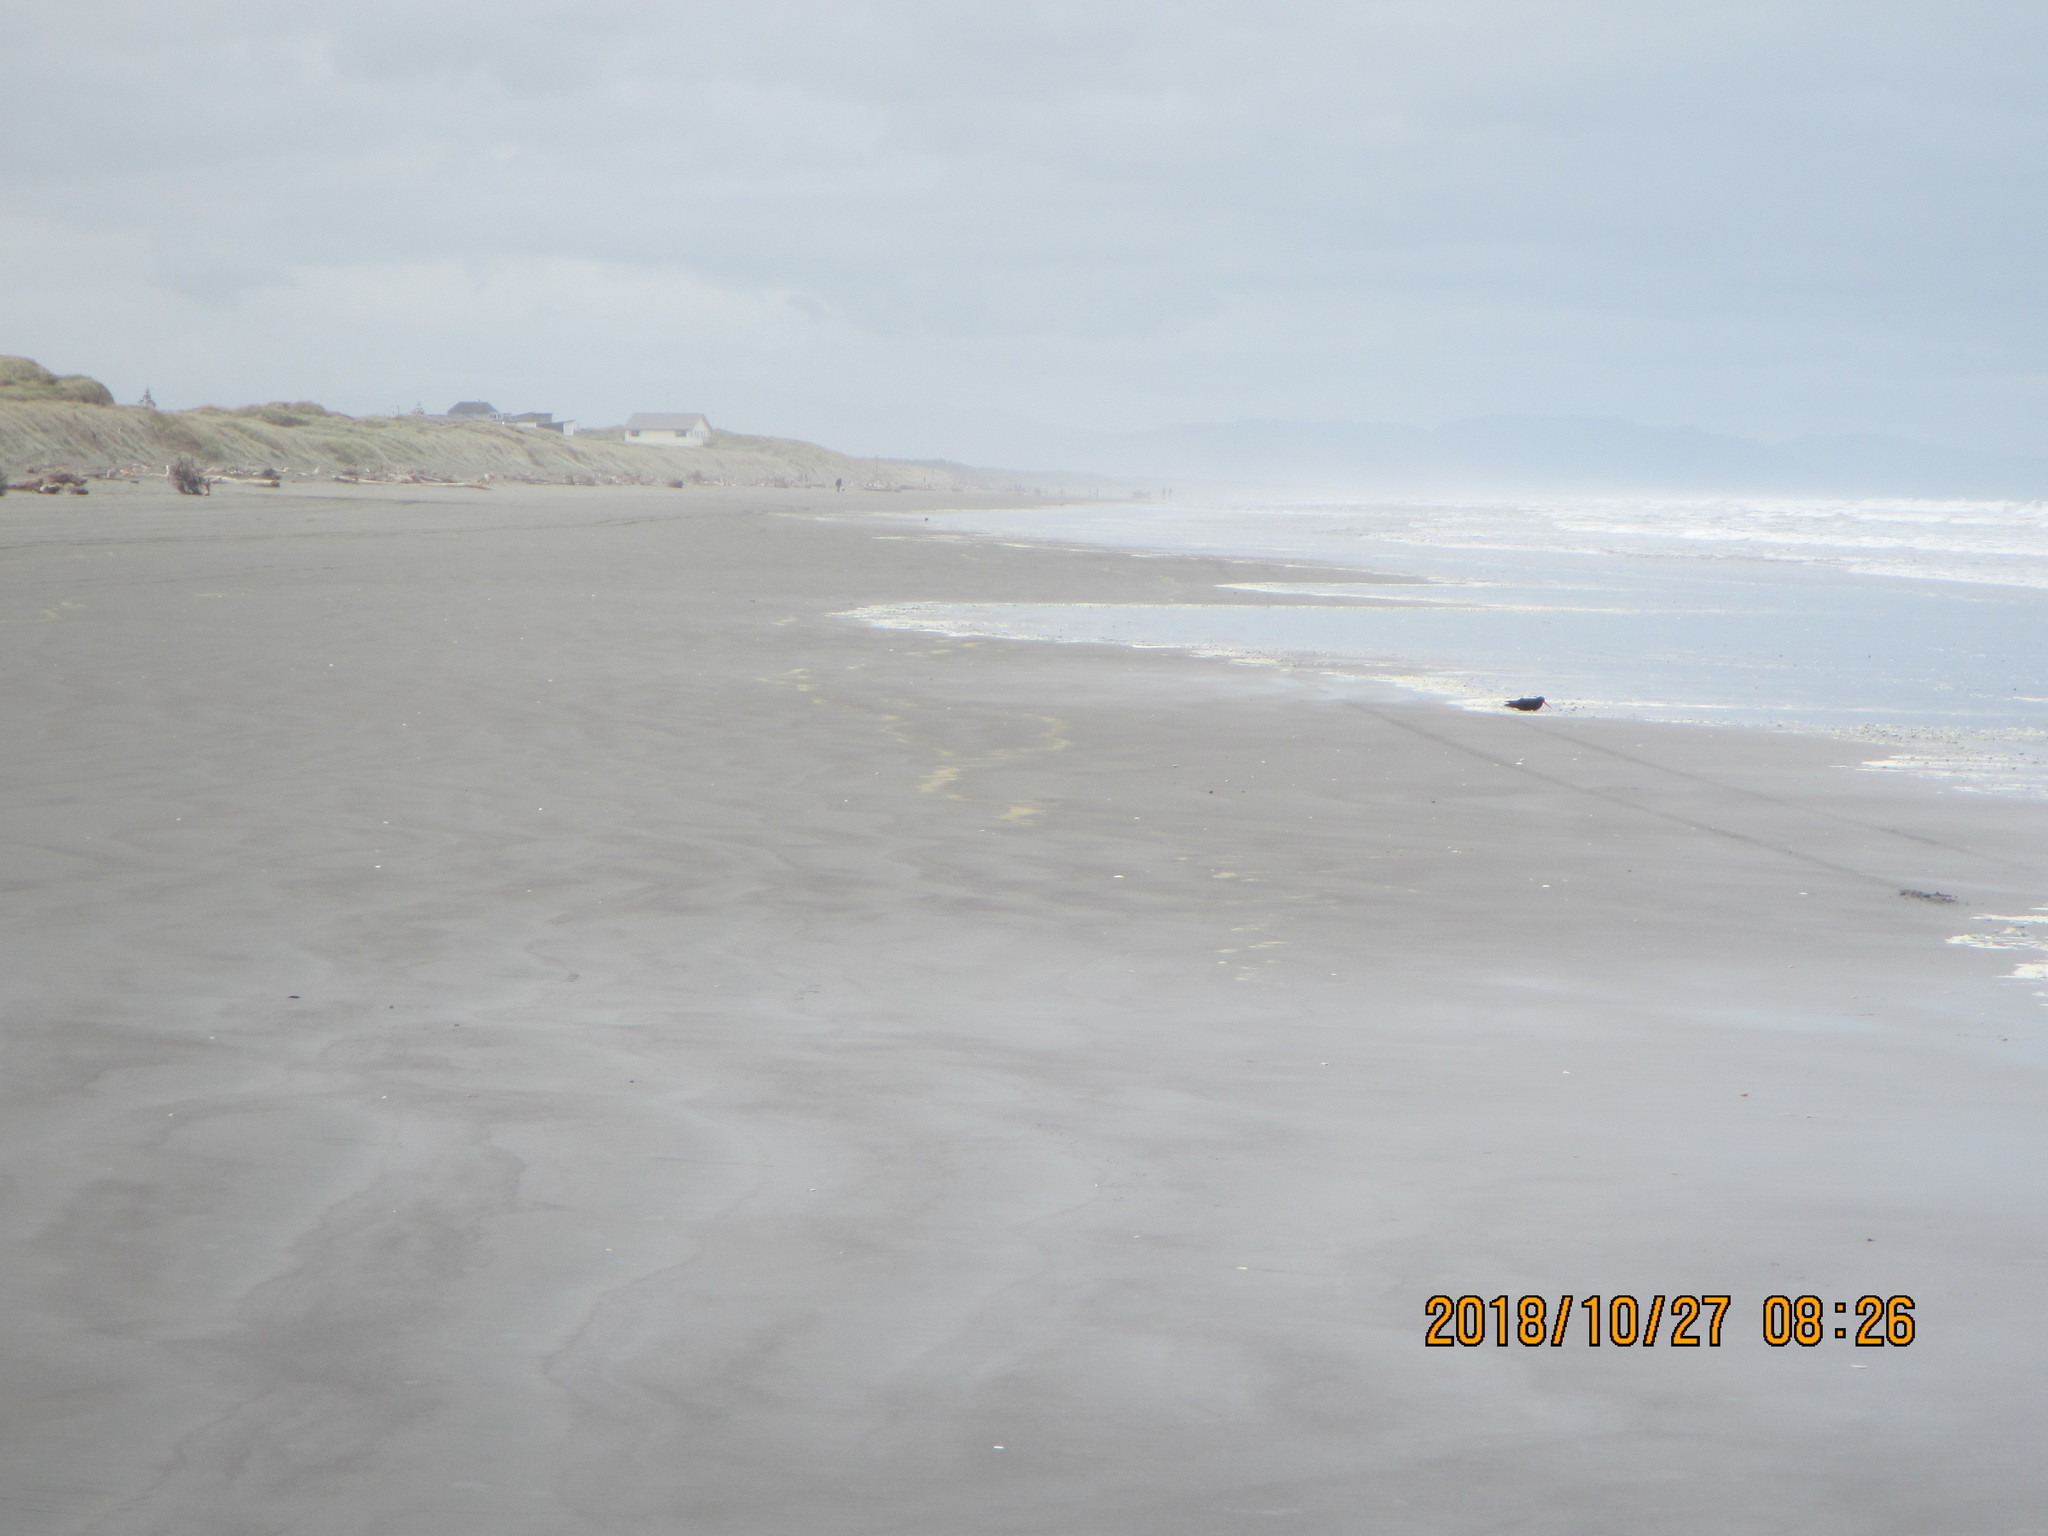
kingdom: Animalia
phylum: Chordata
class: Aves
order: Charadriiformes
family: Haematopodidae
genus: Haematopus
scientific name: Haematopus unicolor
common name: Variable oystercatcher
